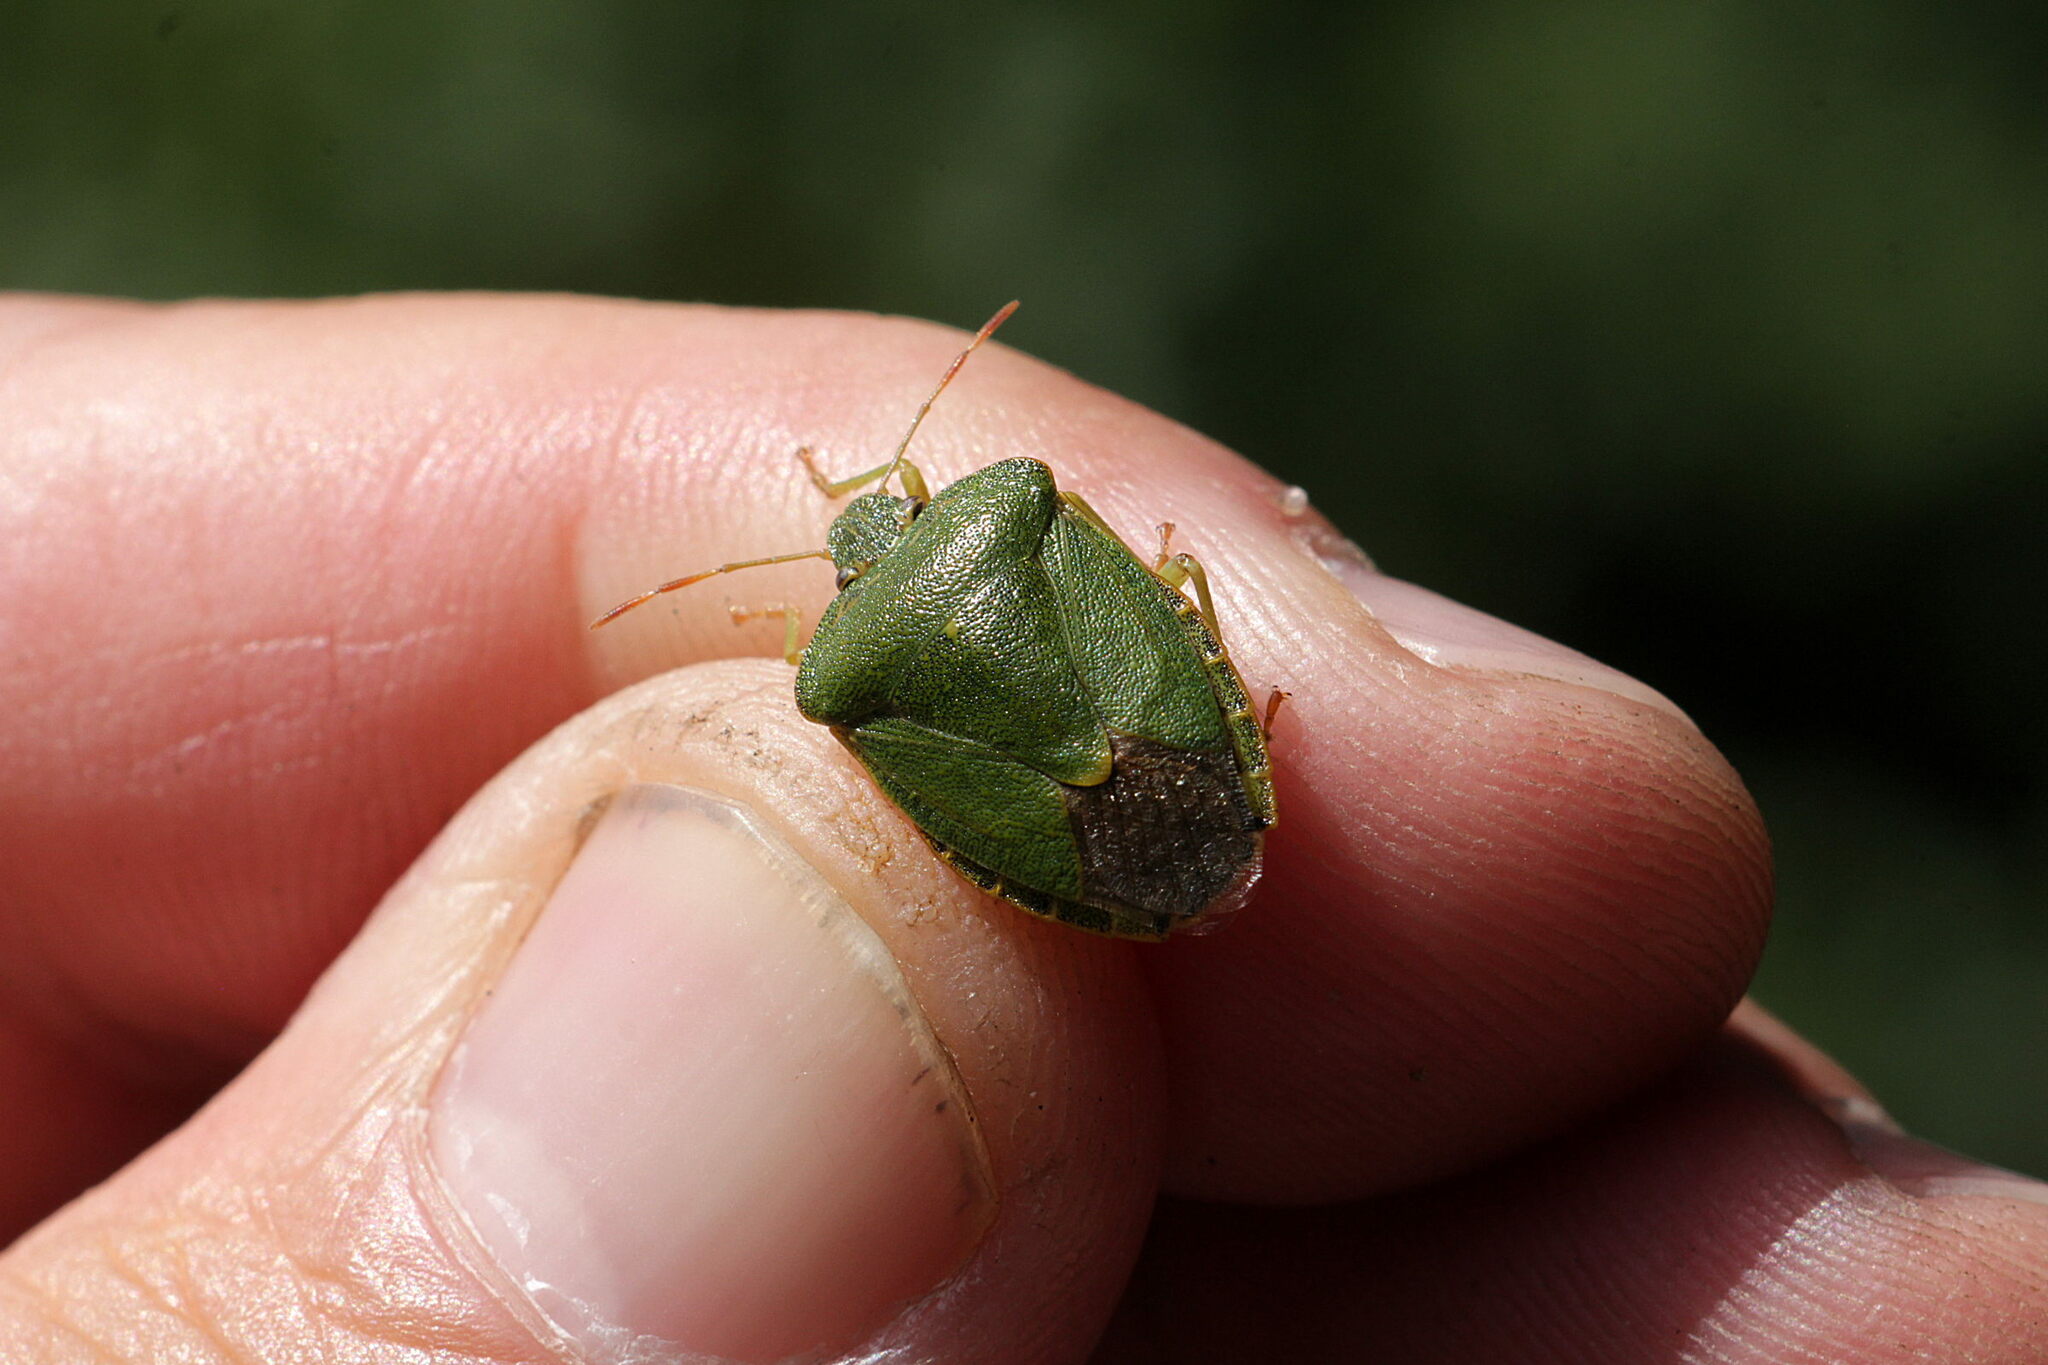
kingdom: Animalia
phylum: Arthropoda
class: Insecta
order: Hemiptera
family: Pentatomidae
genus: Palomena
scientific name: Palomena prasina
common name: Green shieldbug
